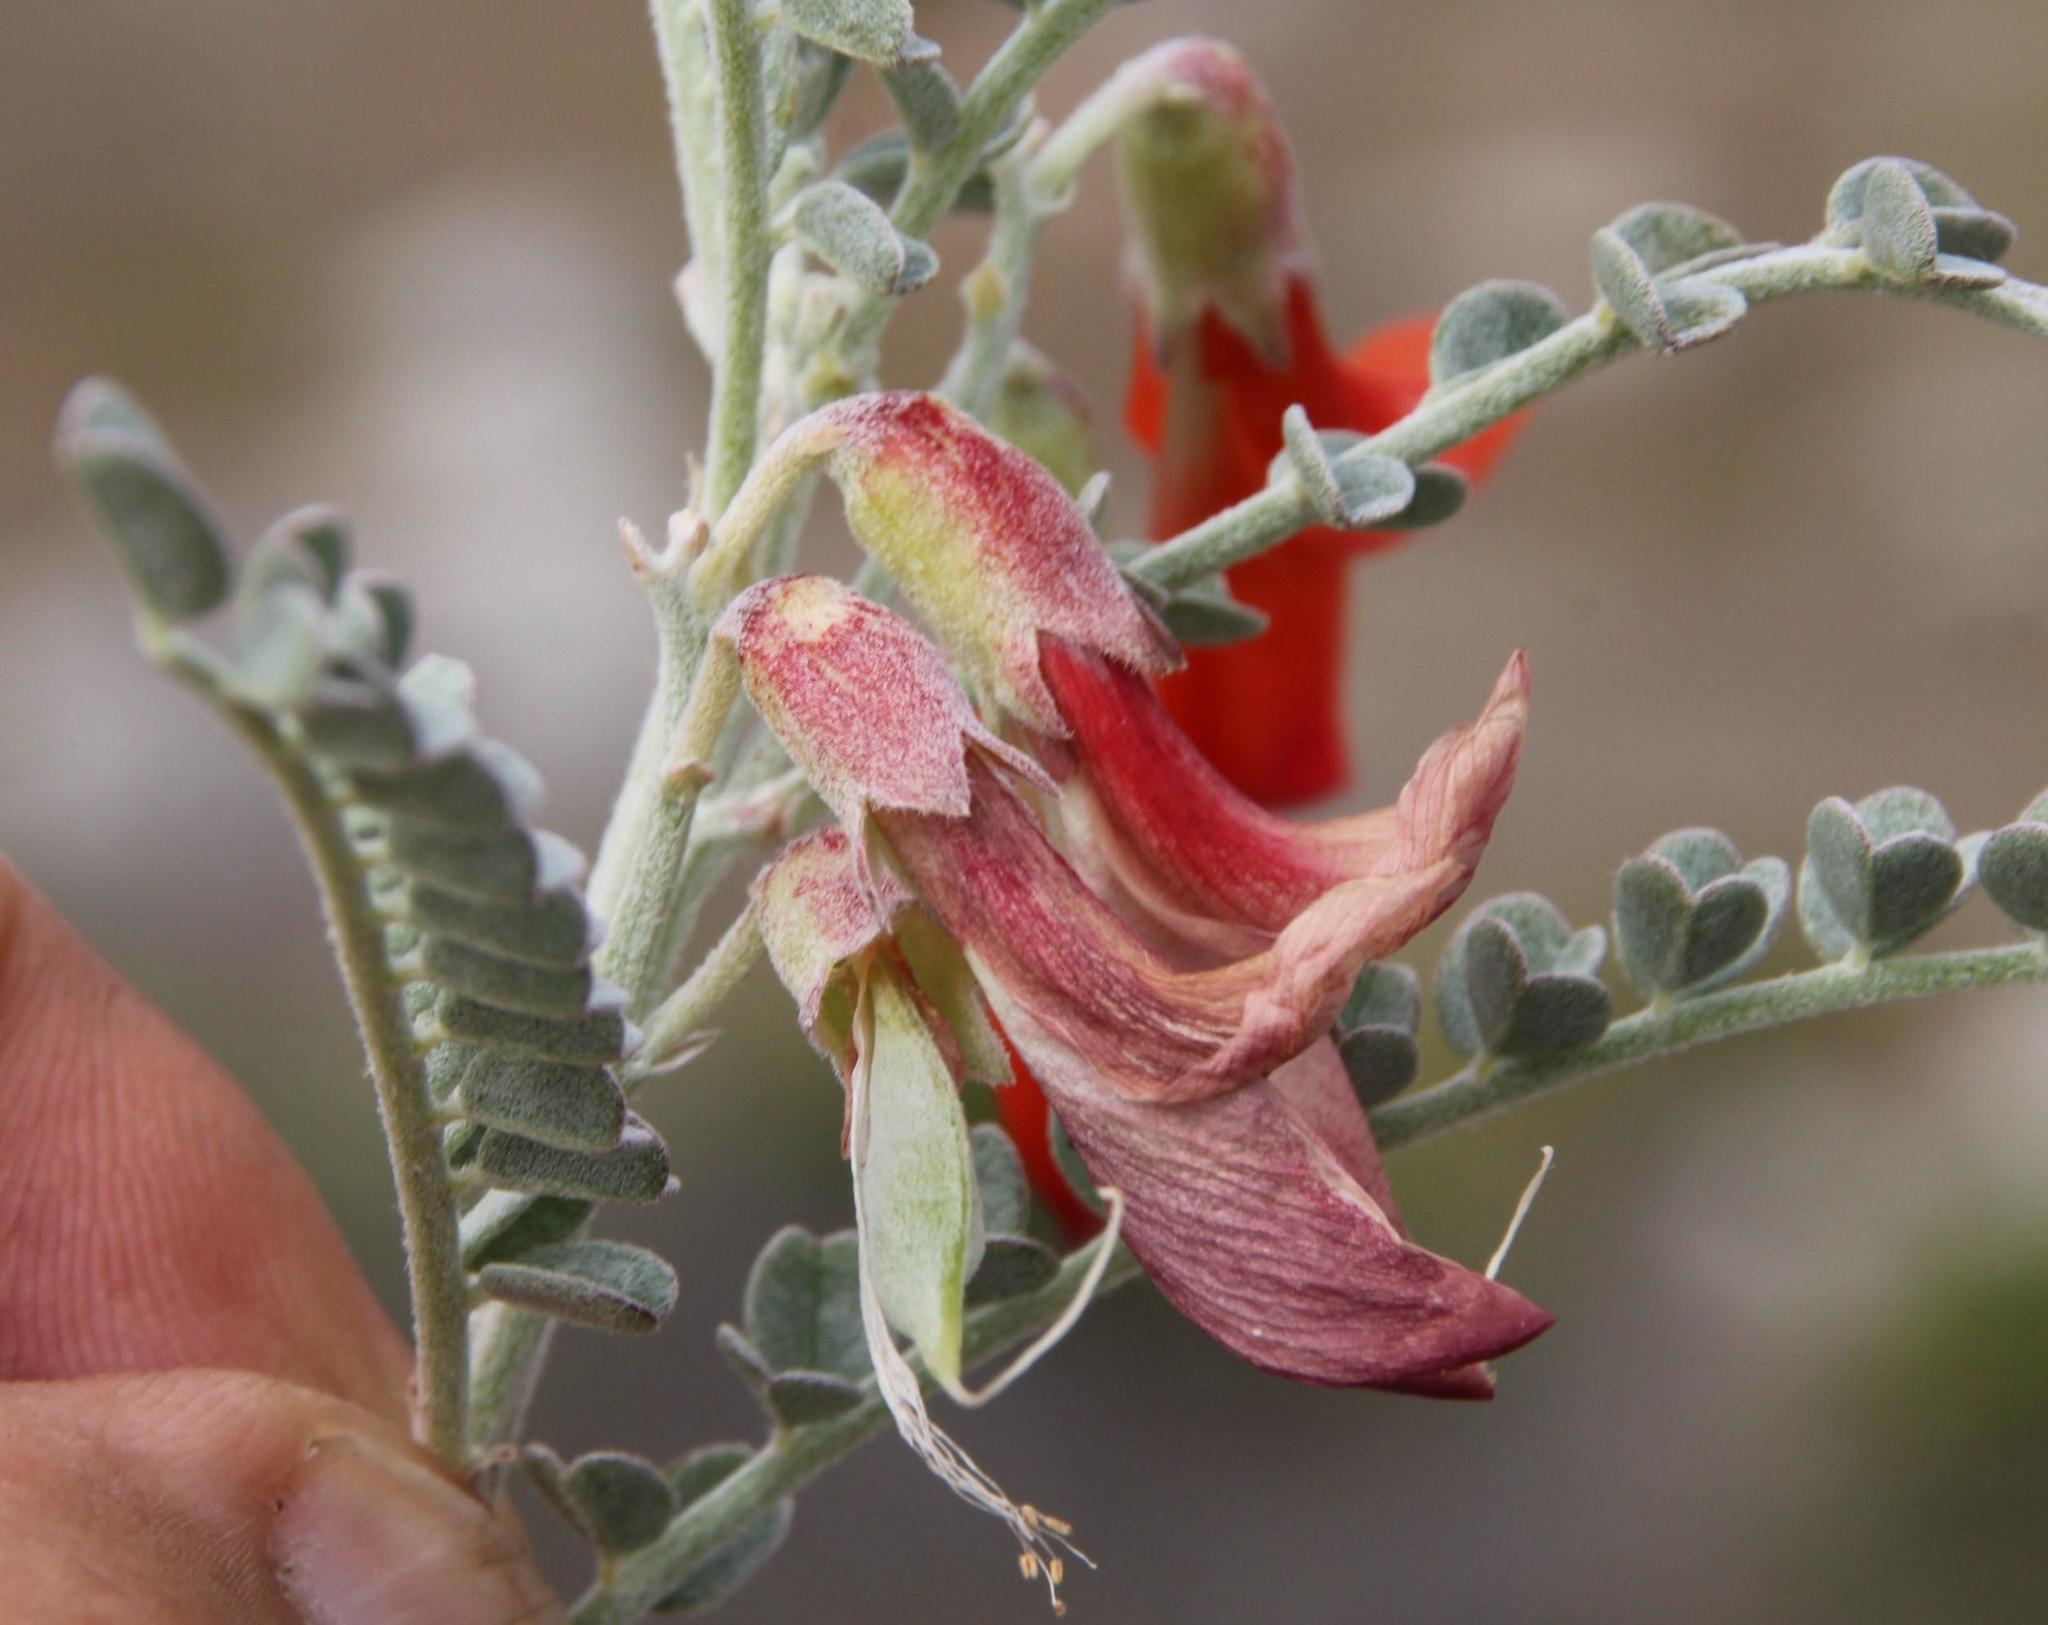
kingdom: Plantae
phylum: Tracheophyta
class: Magnoliopsida
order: Fabales
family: Fabaceae
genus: Lessertia
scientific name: Lessertia canescens
